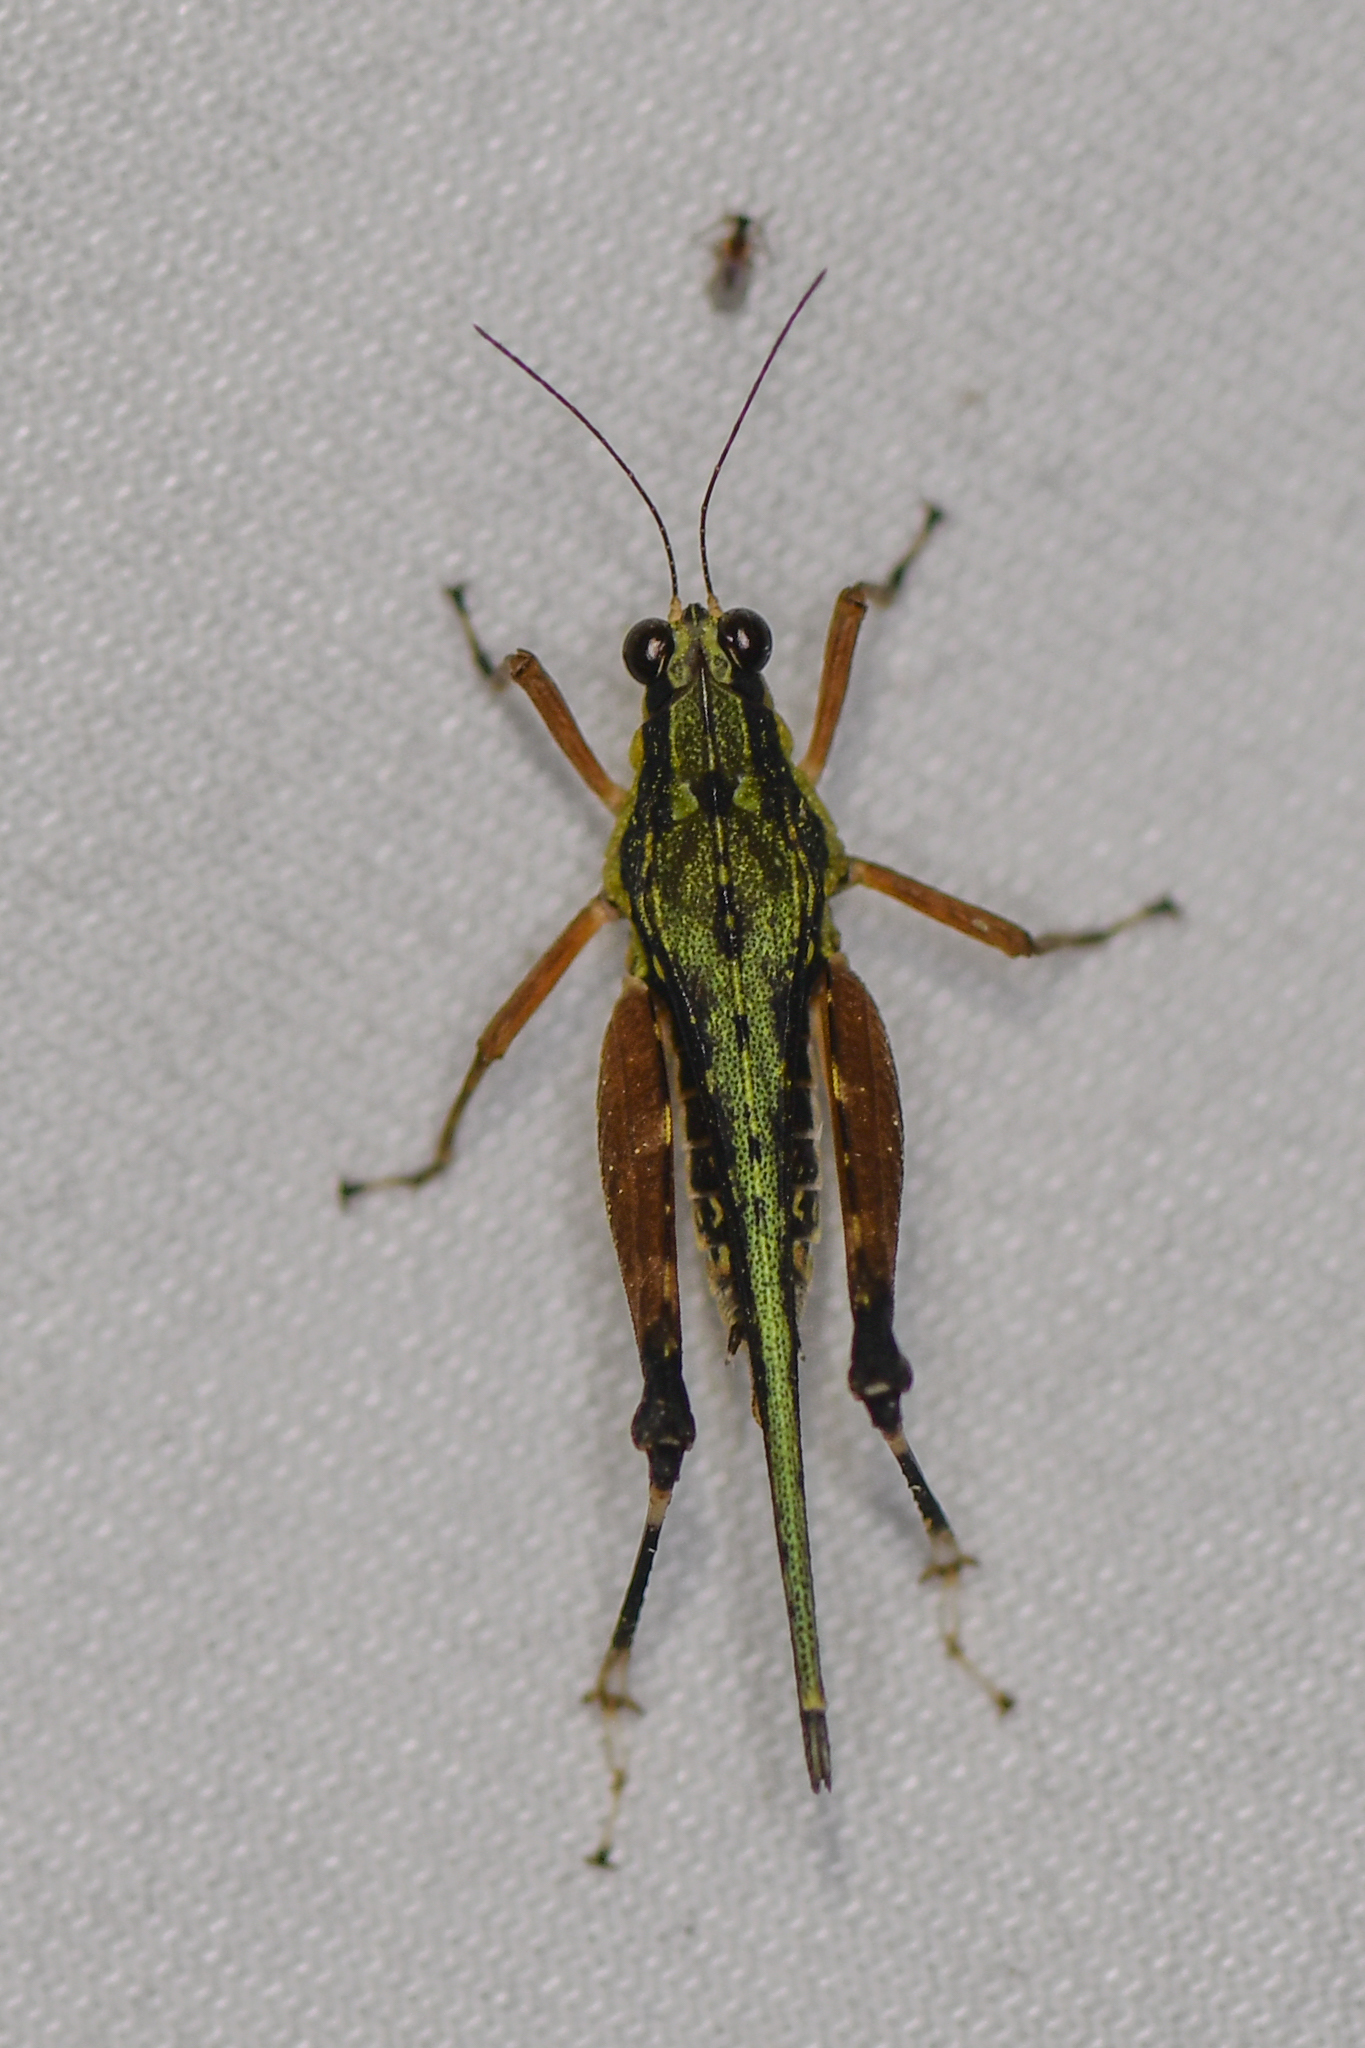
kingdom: Animalia
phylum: Arthropoda
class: Insecta
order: Orthoptera
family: Tetrigidae
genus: Scaria
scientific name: Scaria fasciata
